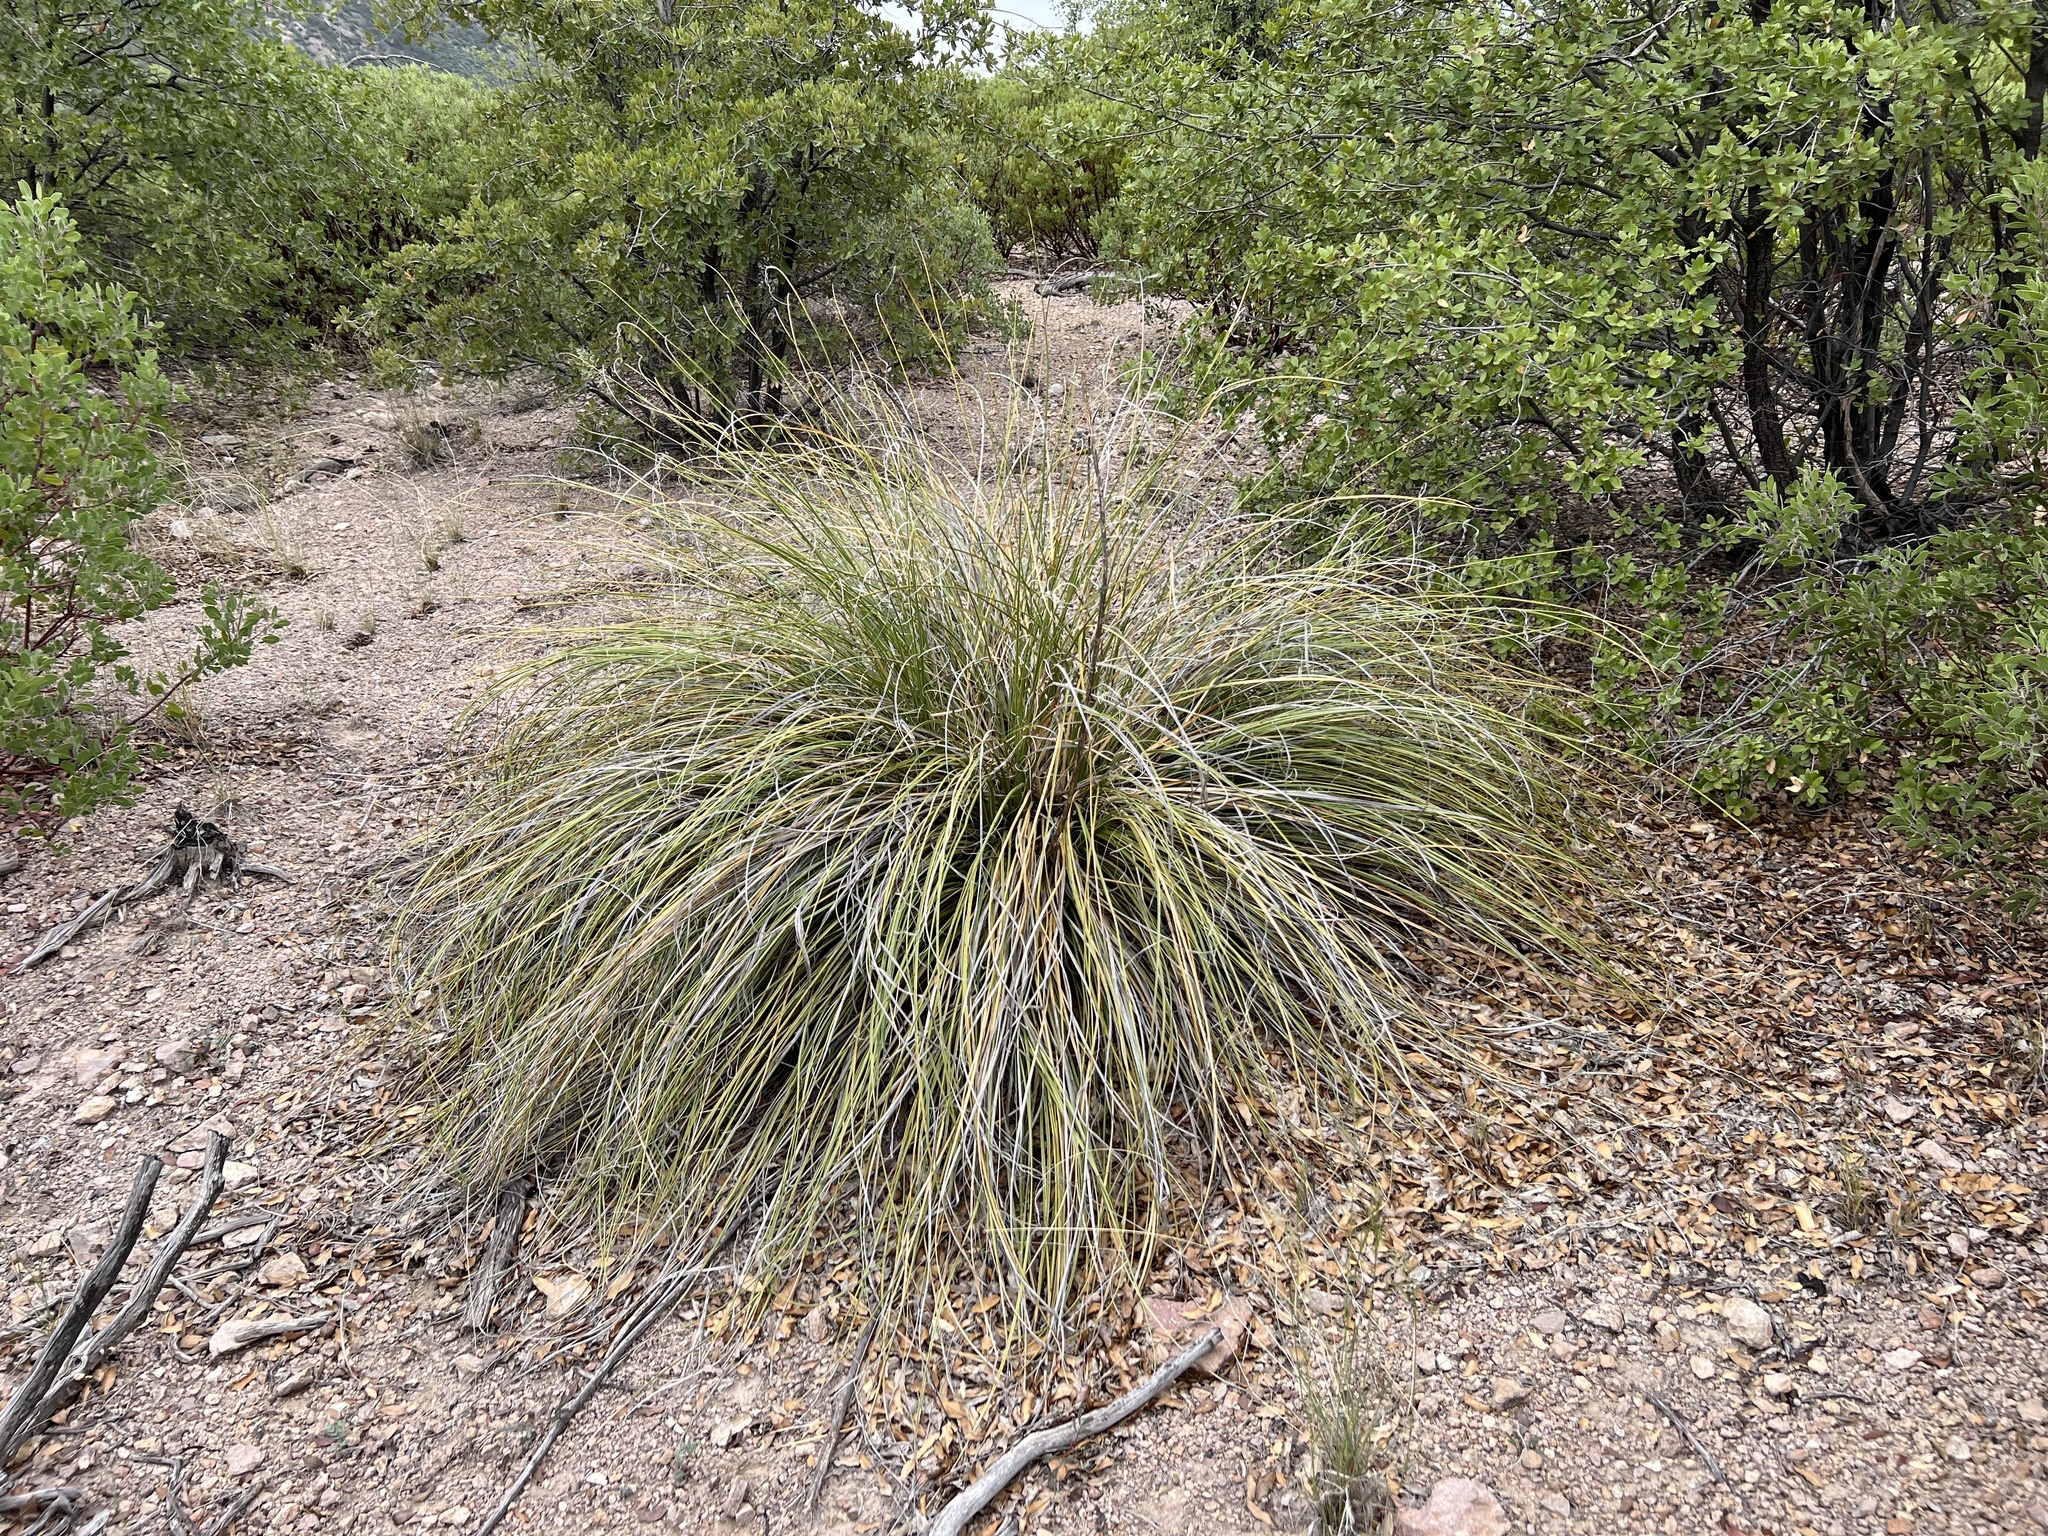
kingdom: Plantae
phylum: Tracheophyta
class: Liliopsida
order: Asparagales
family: Asparagaceae
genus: Nolina
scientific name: Nolina microcarpa
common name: Bear-grass
